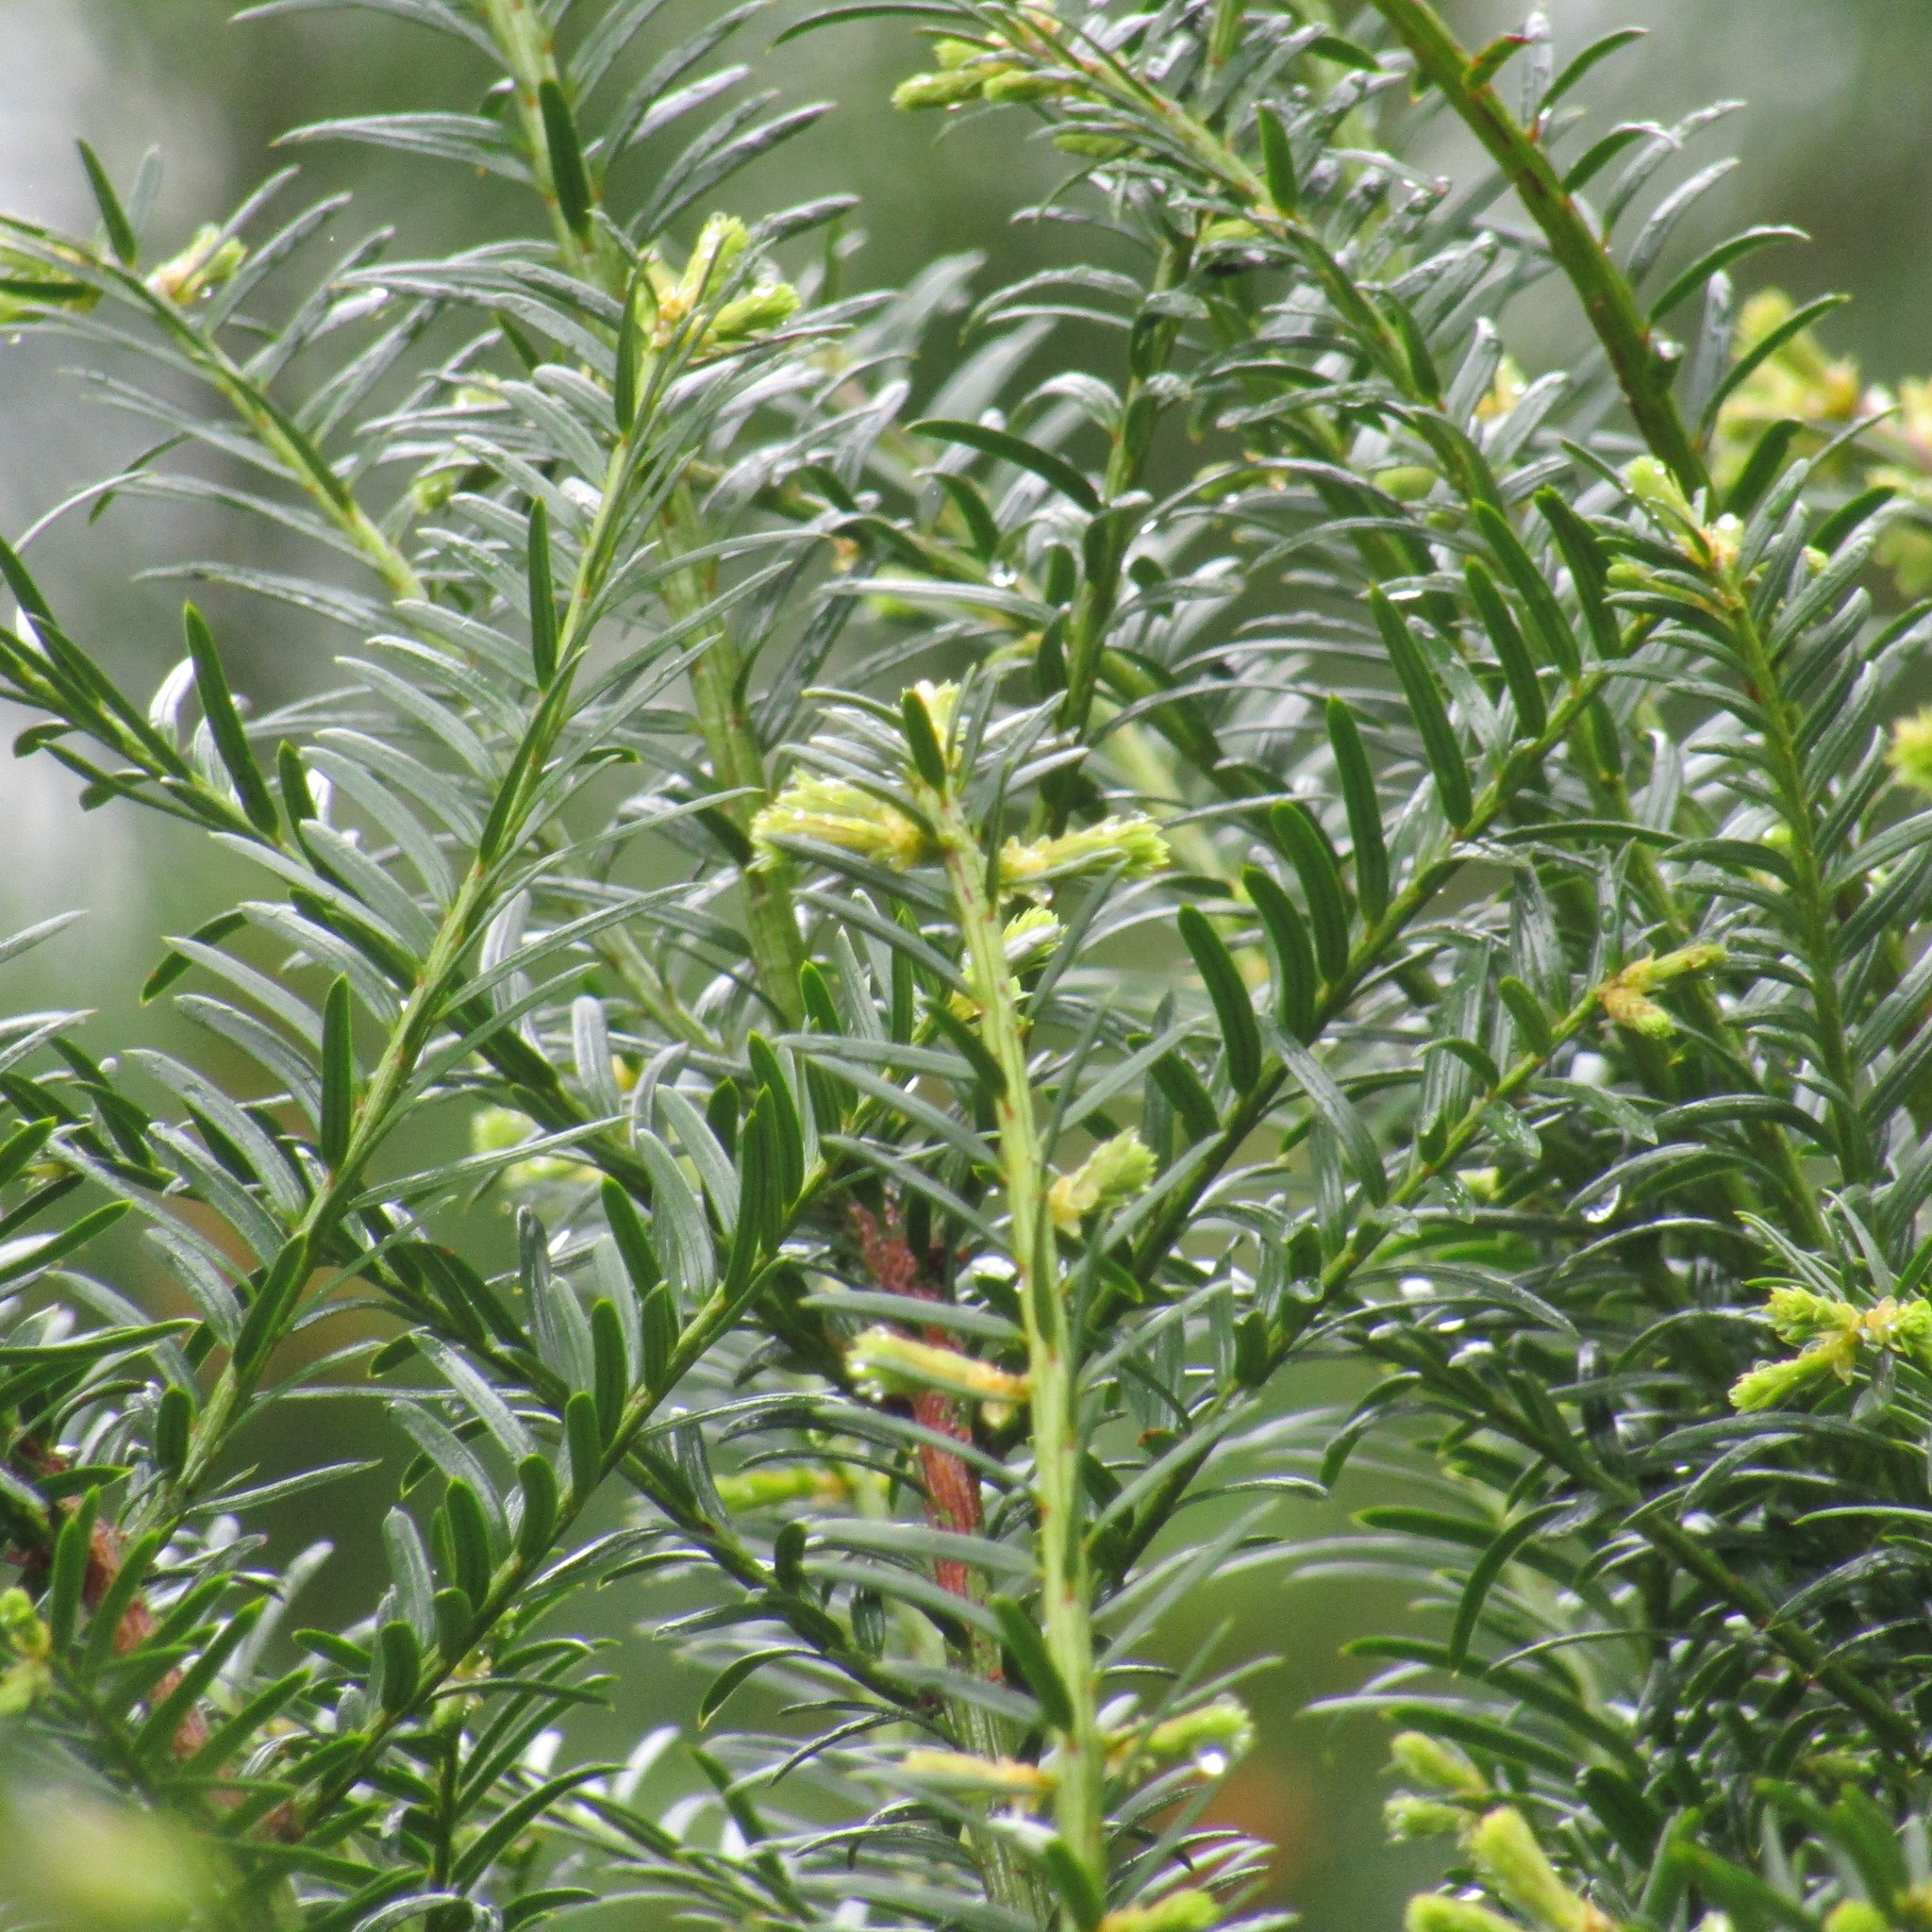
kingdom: Plantae
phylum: Tracheophyta
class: Pinopsida
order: Pinales
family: Taxaceae
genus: Taxus
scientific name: Taxus baccata
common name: Yew
